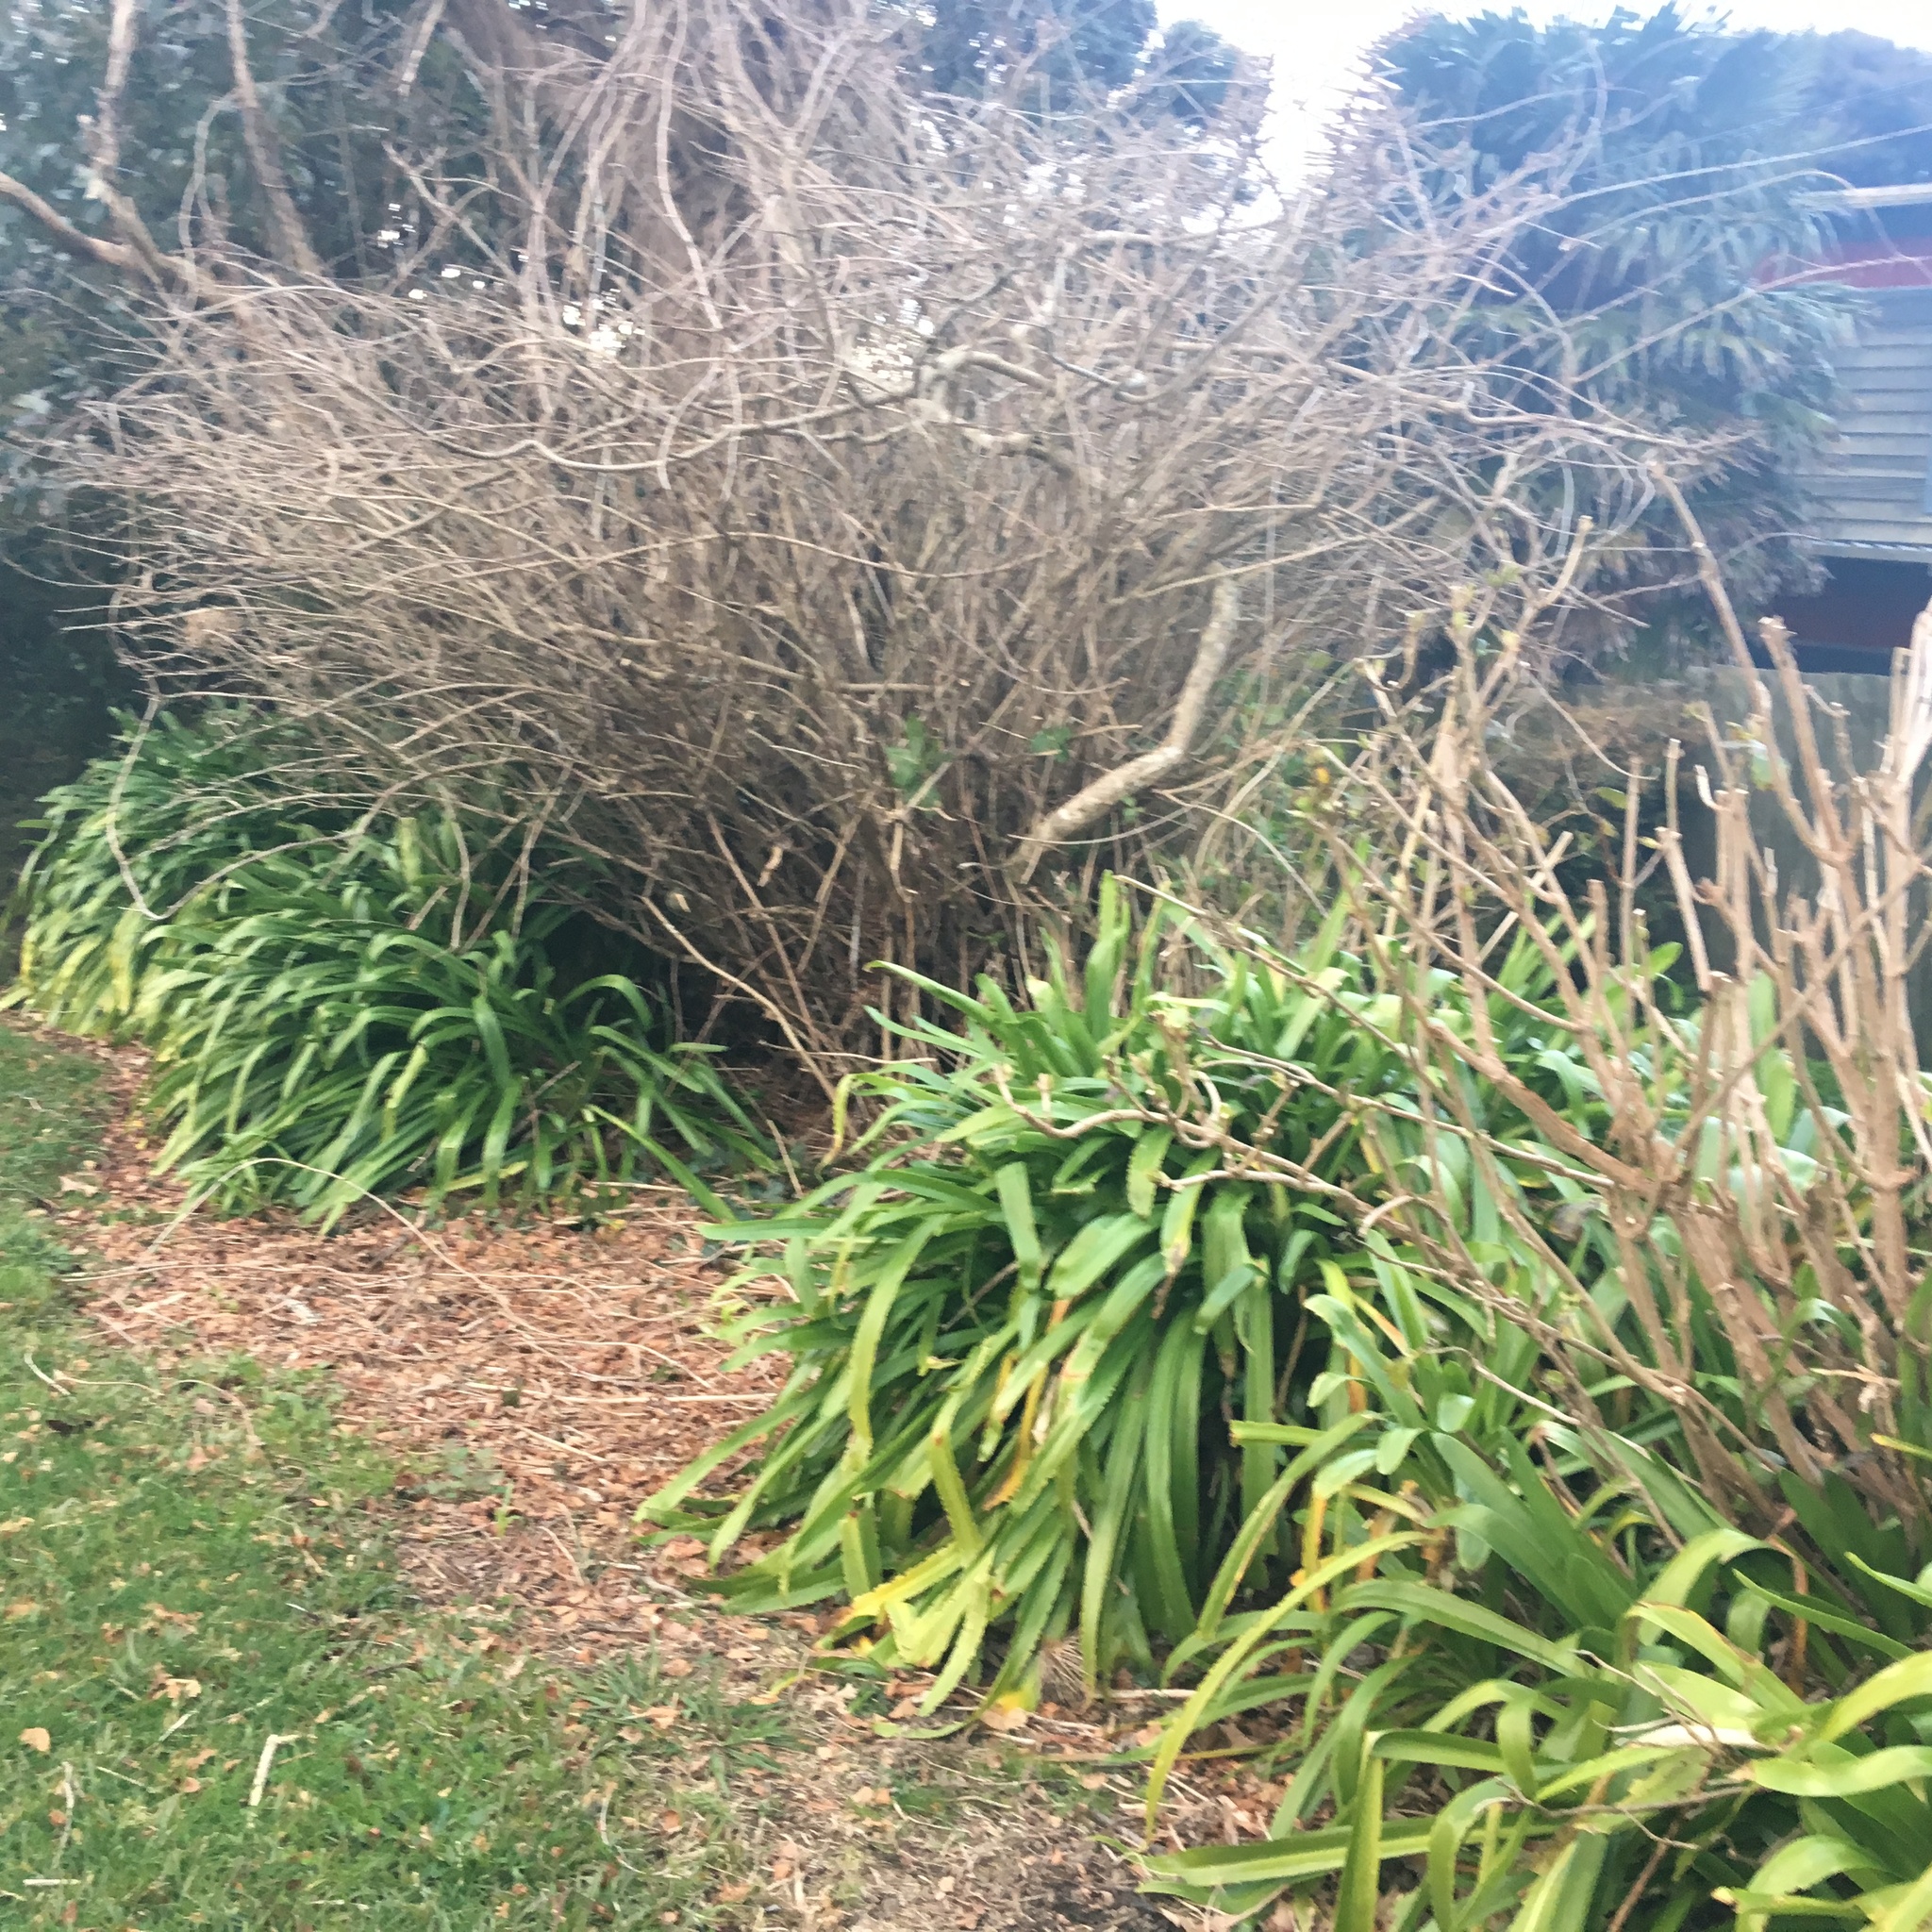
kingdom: Plantae
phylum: Tracheophyta
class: Liliopsida
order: Asparagales
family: Amaryllidaceae
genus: Agapanthus
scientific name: Agapanthus praecox
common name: African-lily
